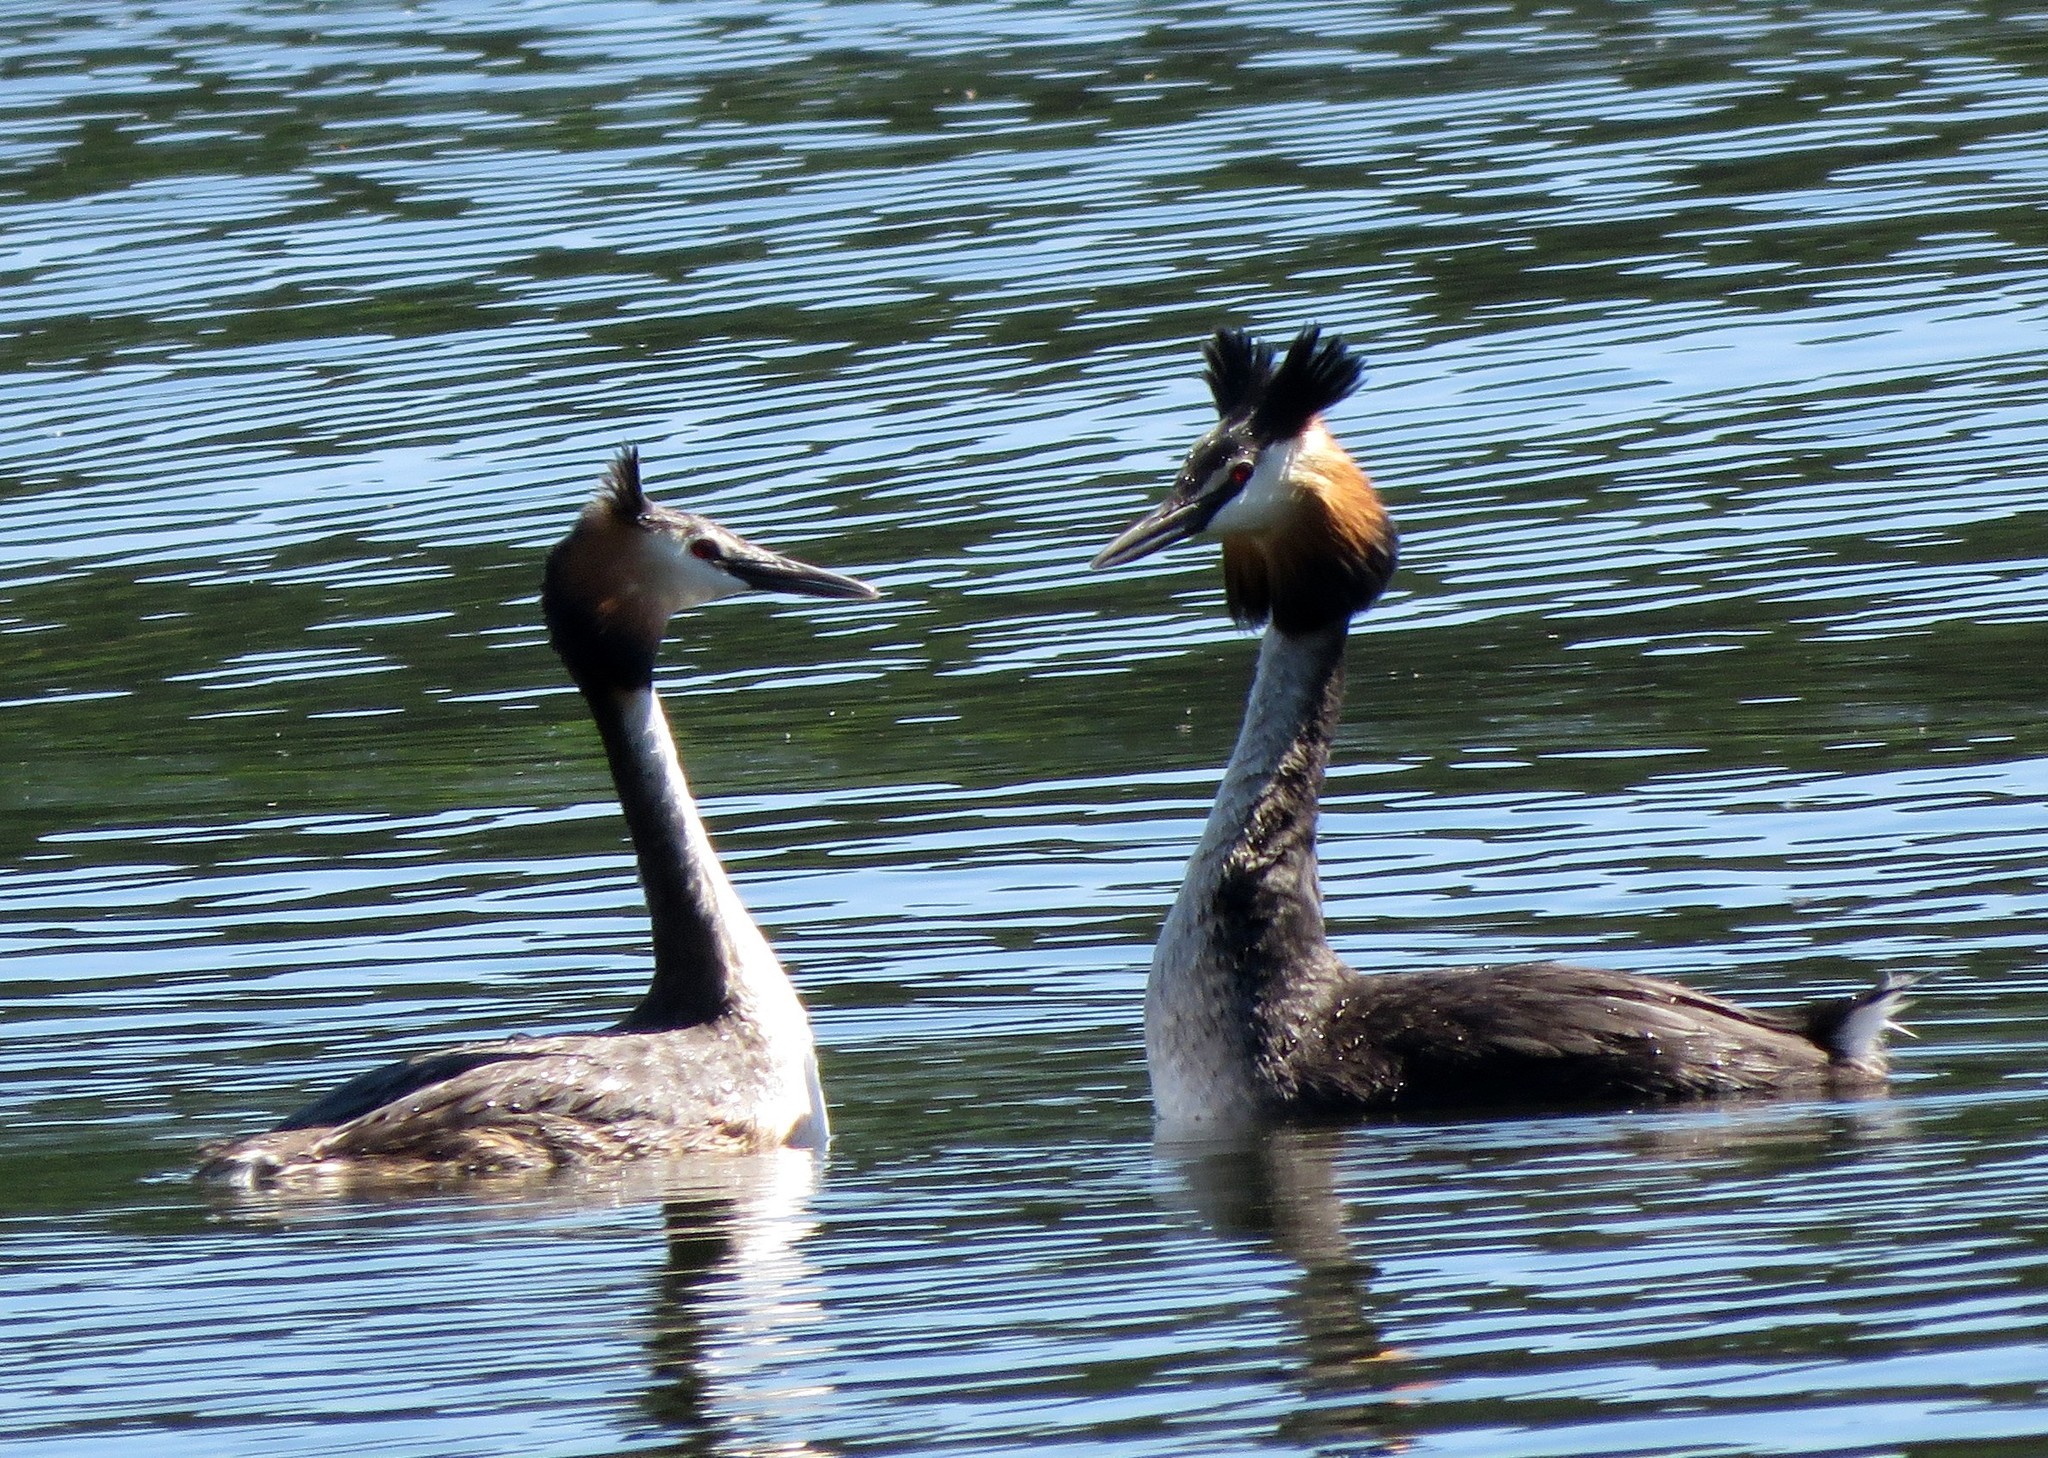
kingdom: Animalia
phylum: Chordata
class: Aves
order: Podicipediformes
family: Podicipedidae
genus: Podiceps
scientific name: Podiceps cristatus
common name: Great crested grebe
